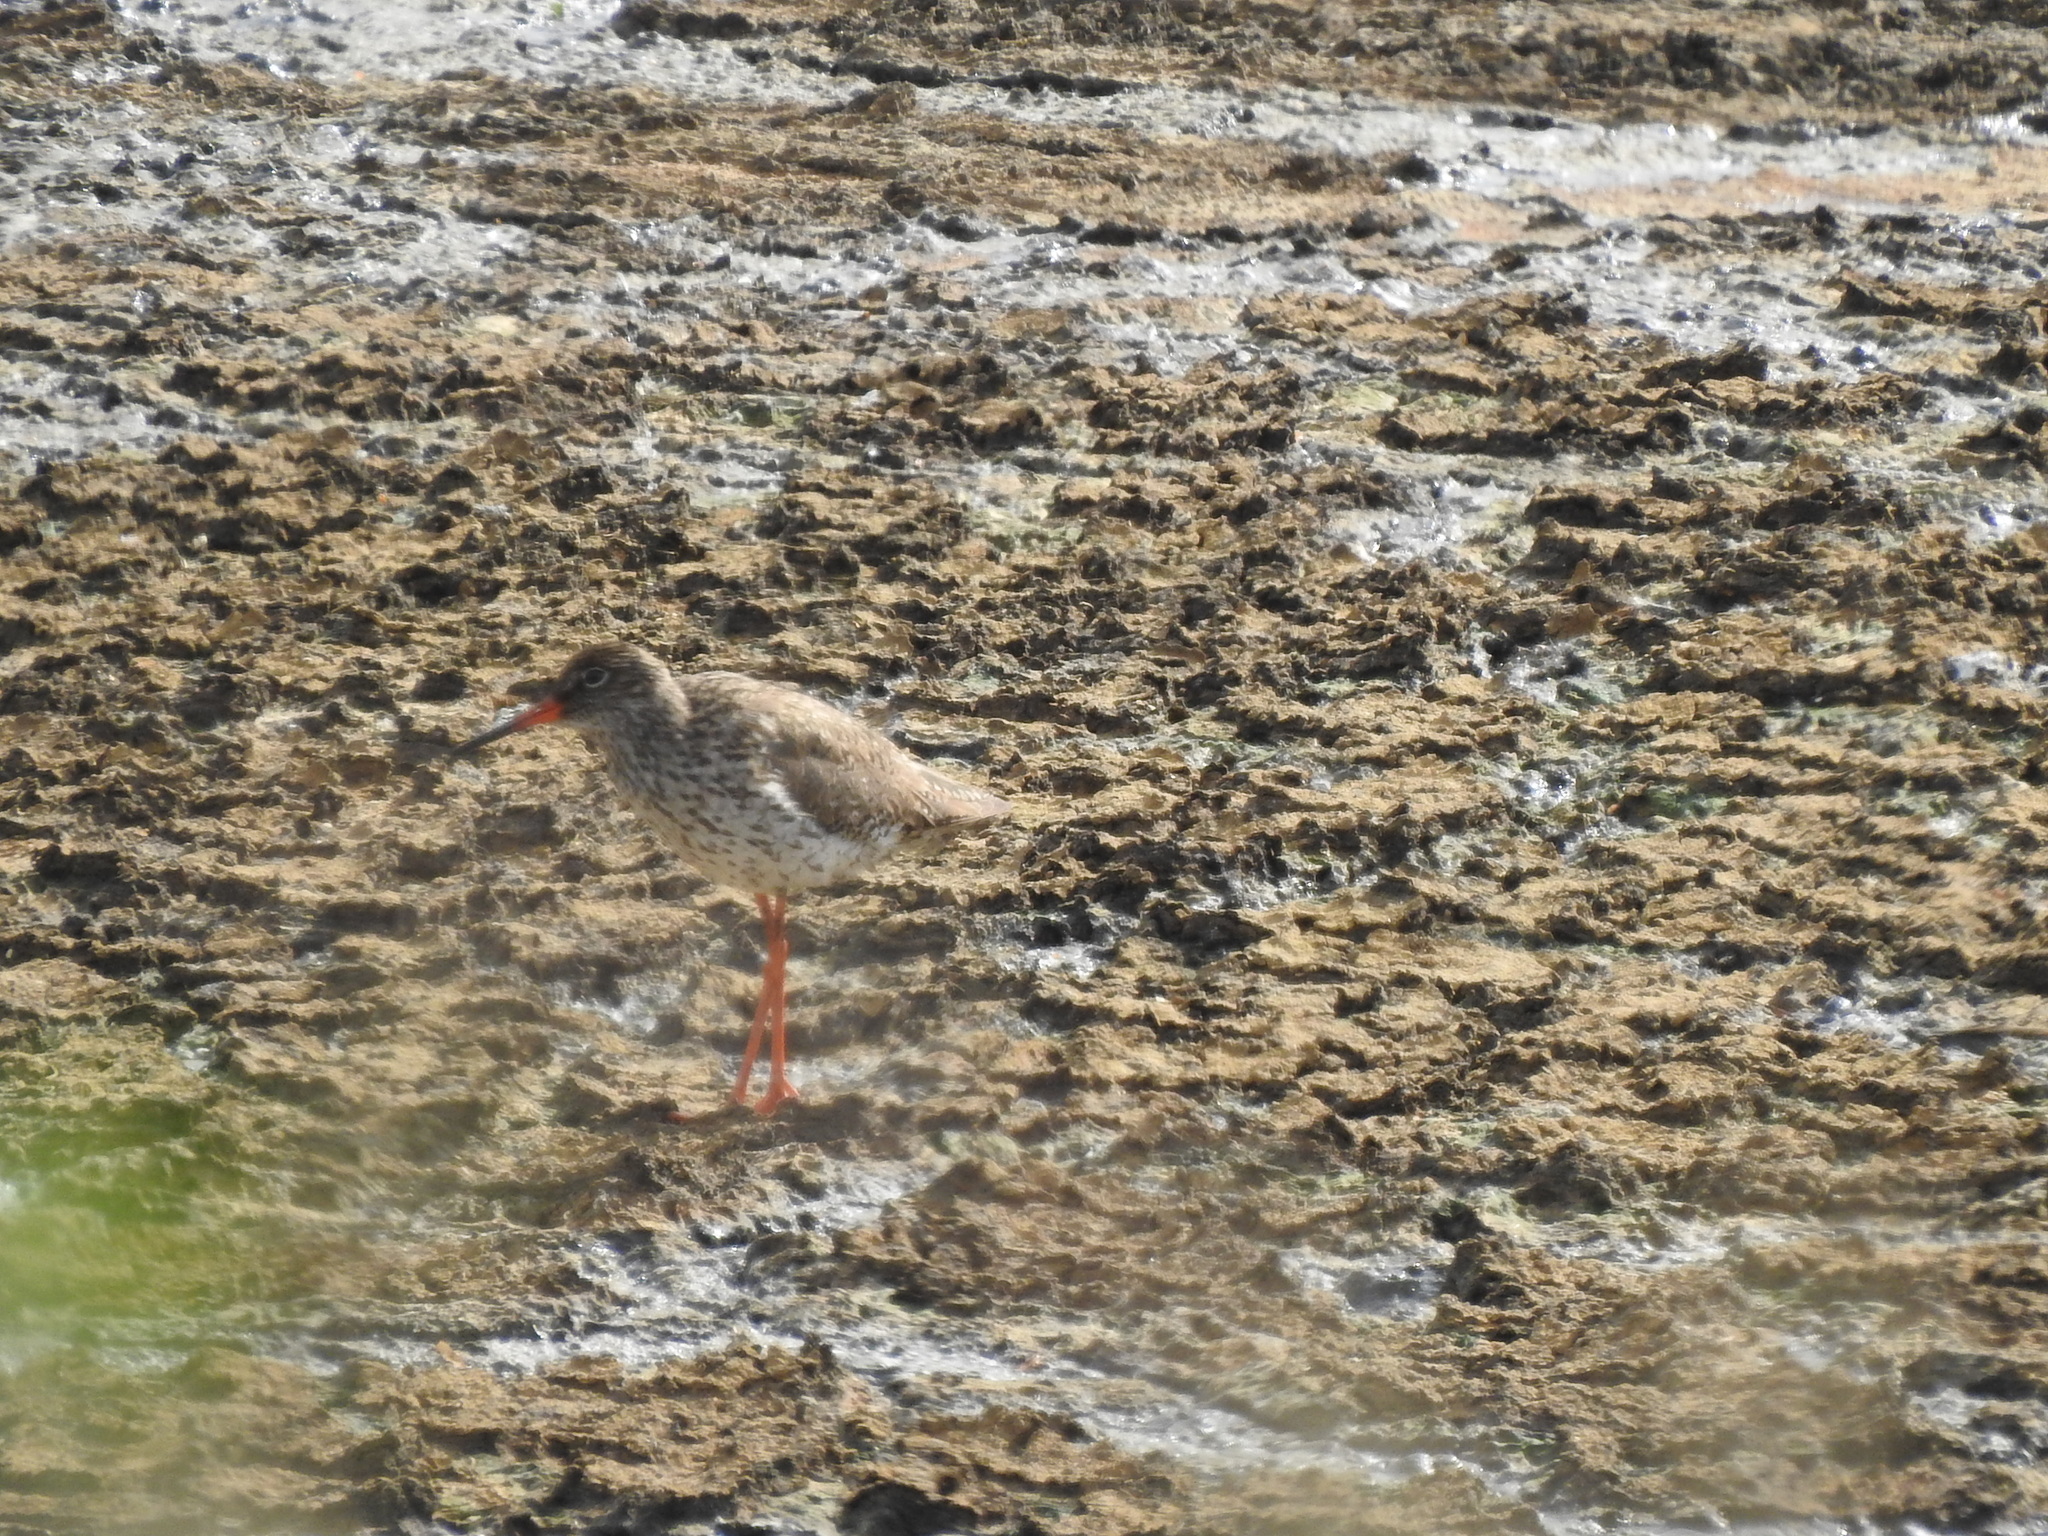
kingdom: Animalia
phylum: Chordata
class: Aves
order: Charadriiformes
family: Scolopacidae
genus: Tringa
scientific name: Tringa totanus
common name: Common redshank
